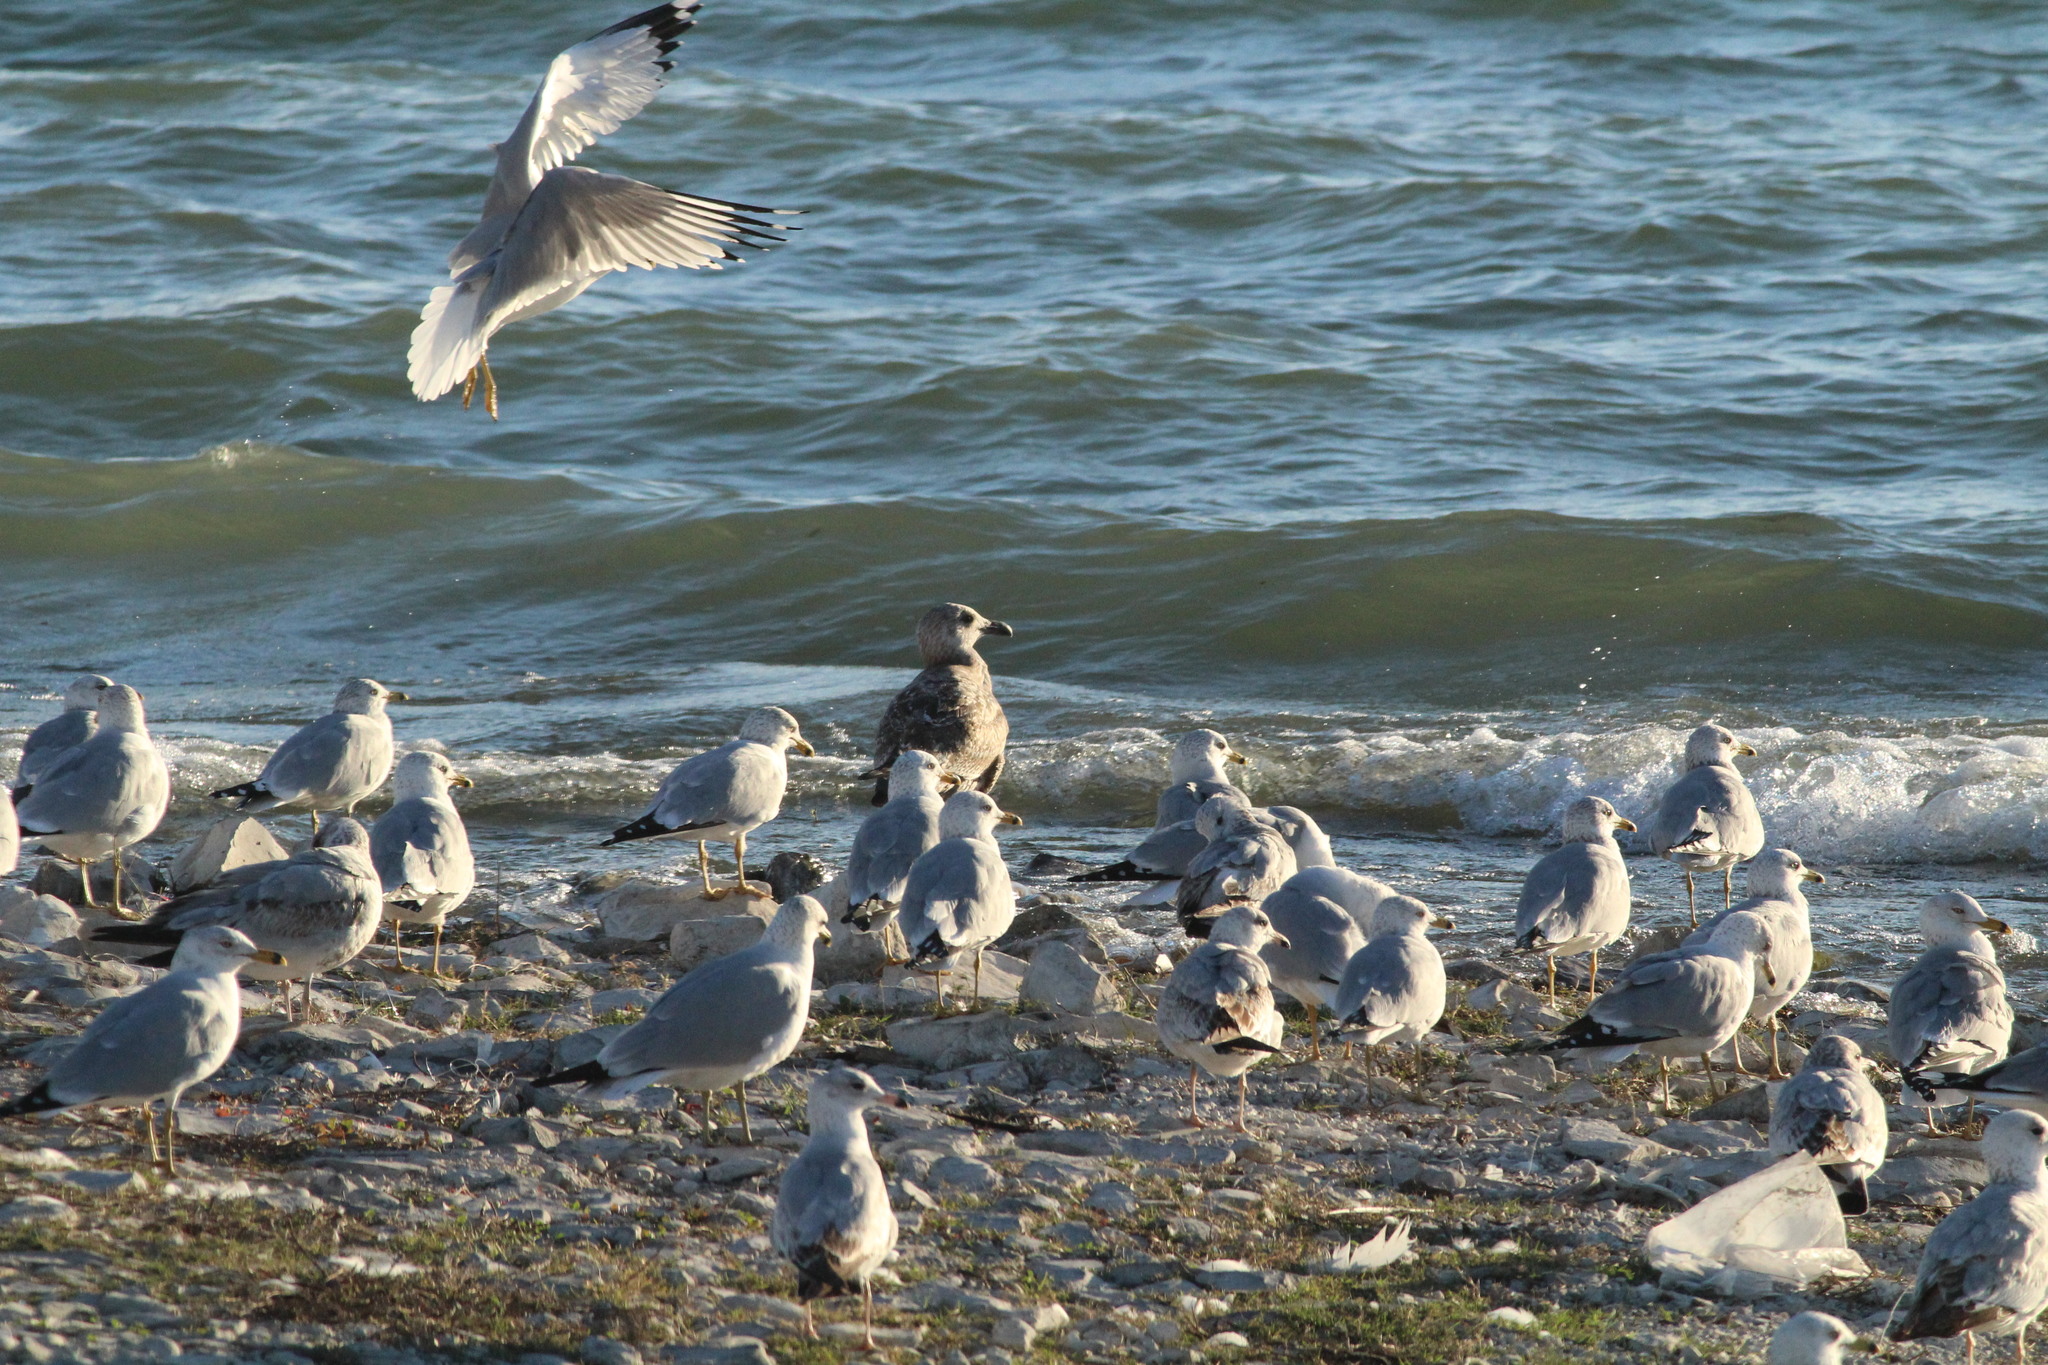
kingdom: Animalia
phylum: Chordata
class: Aves
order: Charadriiformes
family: Laridae
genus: Larus
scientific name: Larus delawarensis
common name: Ring-billed gull
